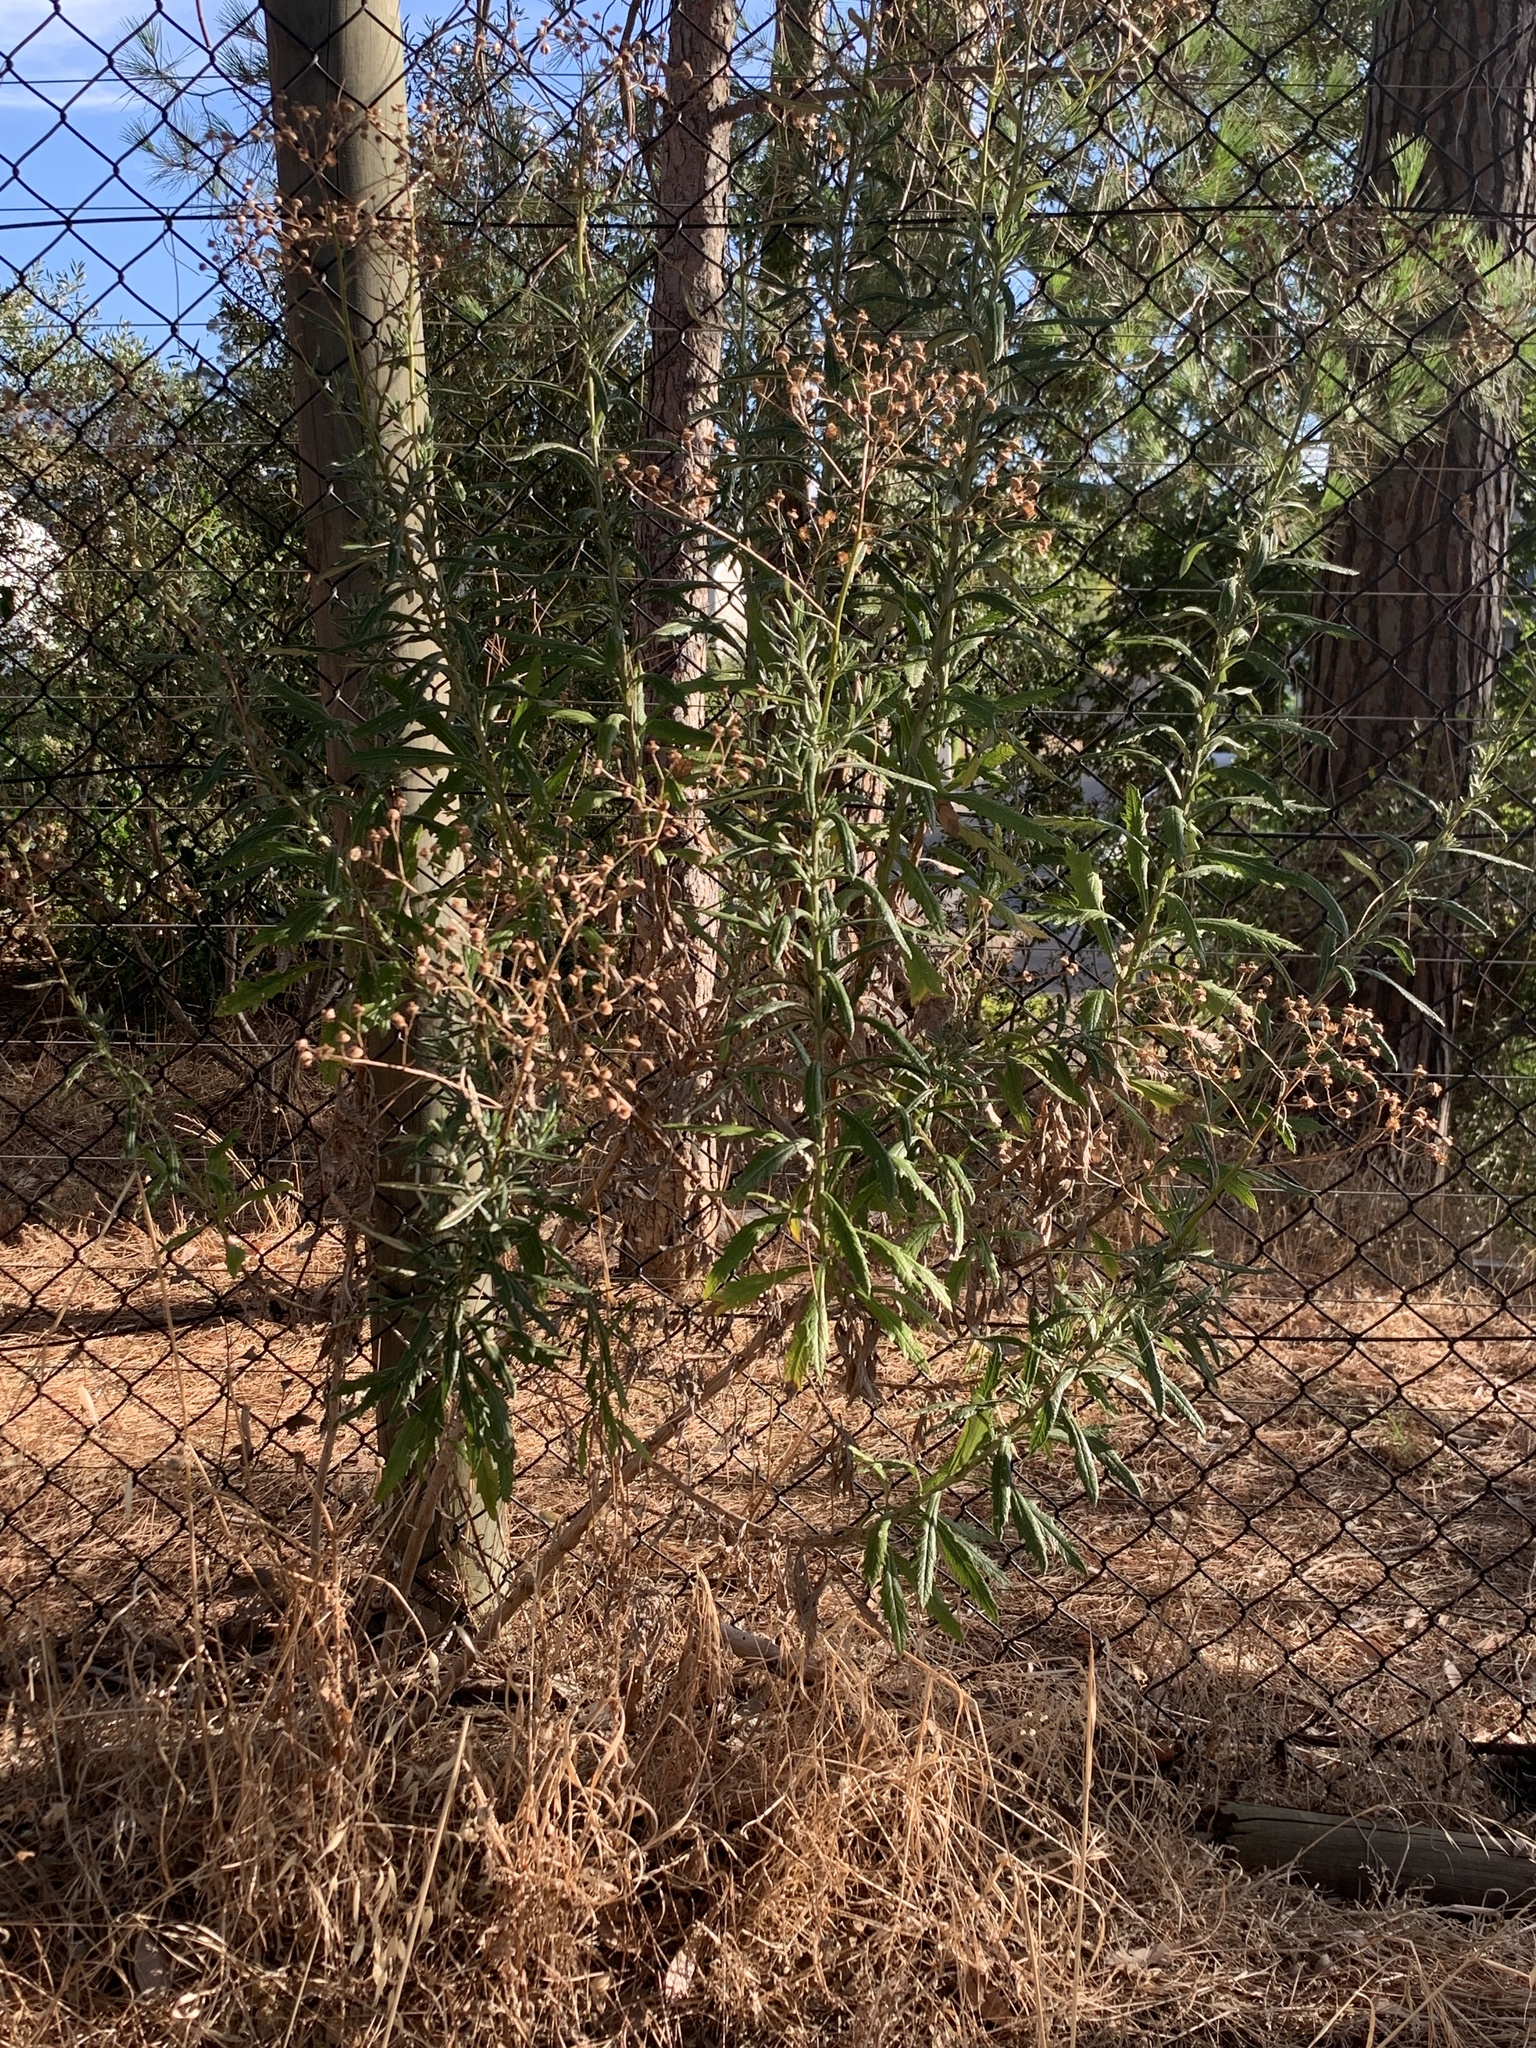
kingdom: Plantae
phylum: Tracheophyta
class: Magnoliopsida
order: Asterales
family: Asteraceae
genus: Senecio
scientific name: Senecio pterophorus
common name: Shoddy ragwort
